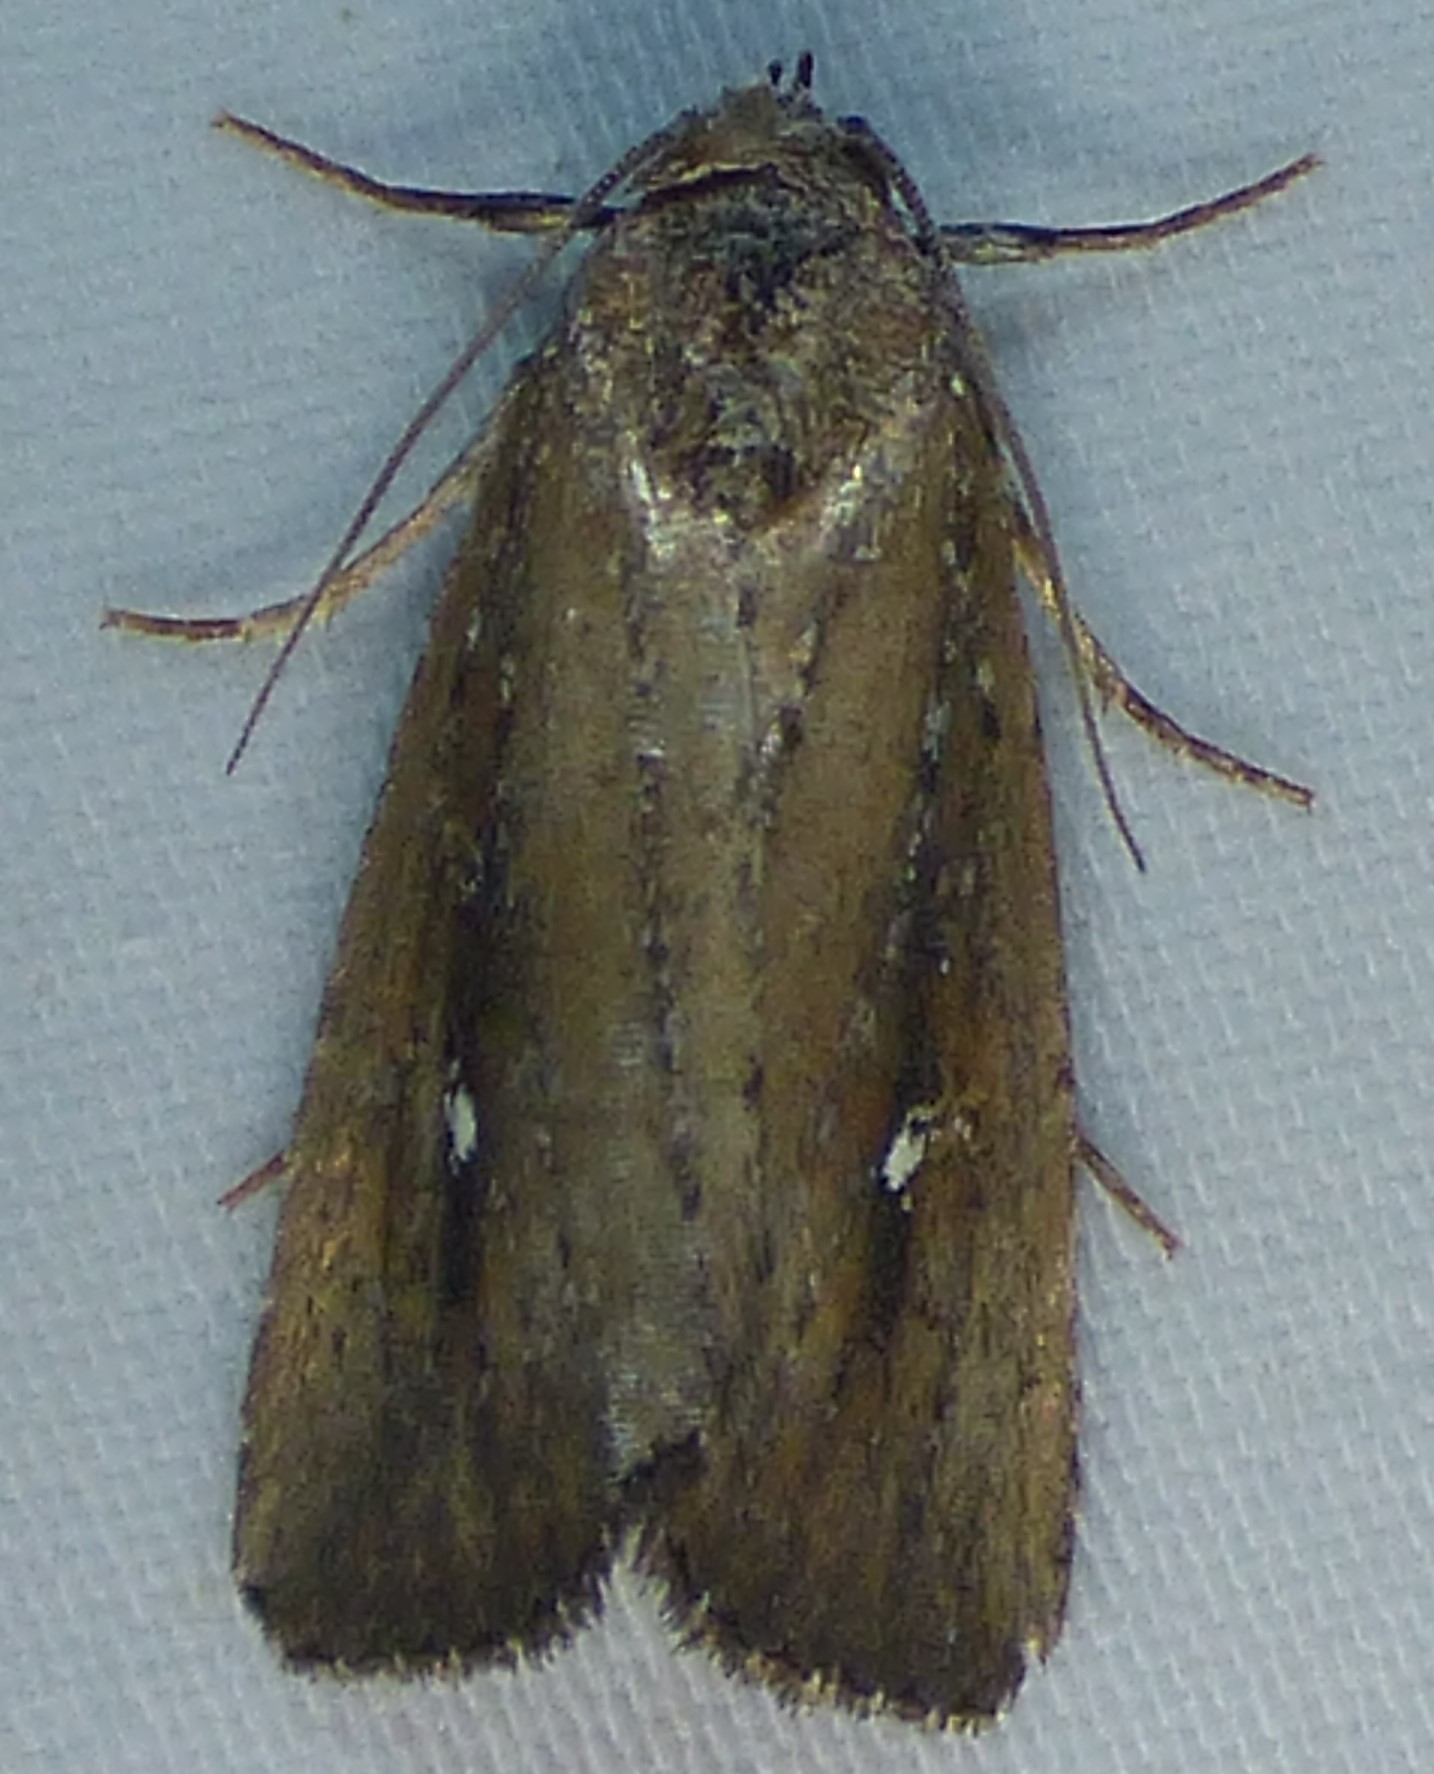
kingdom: Animalia
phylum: Arthropoda
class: Insecta
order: Lepidoptera
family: Noctuidae
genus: Condica
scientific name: Condica videns
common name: White-dotted groundling
